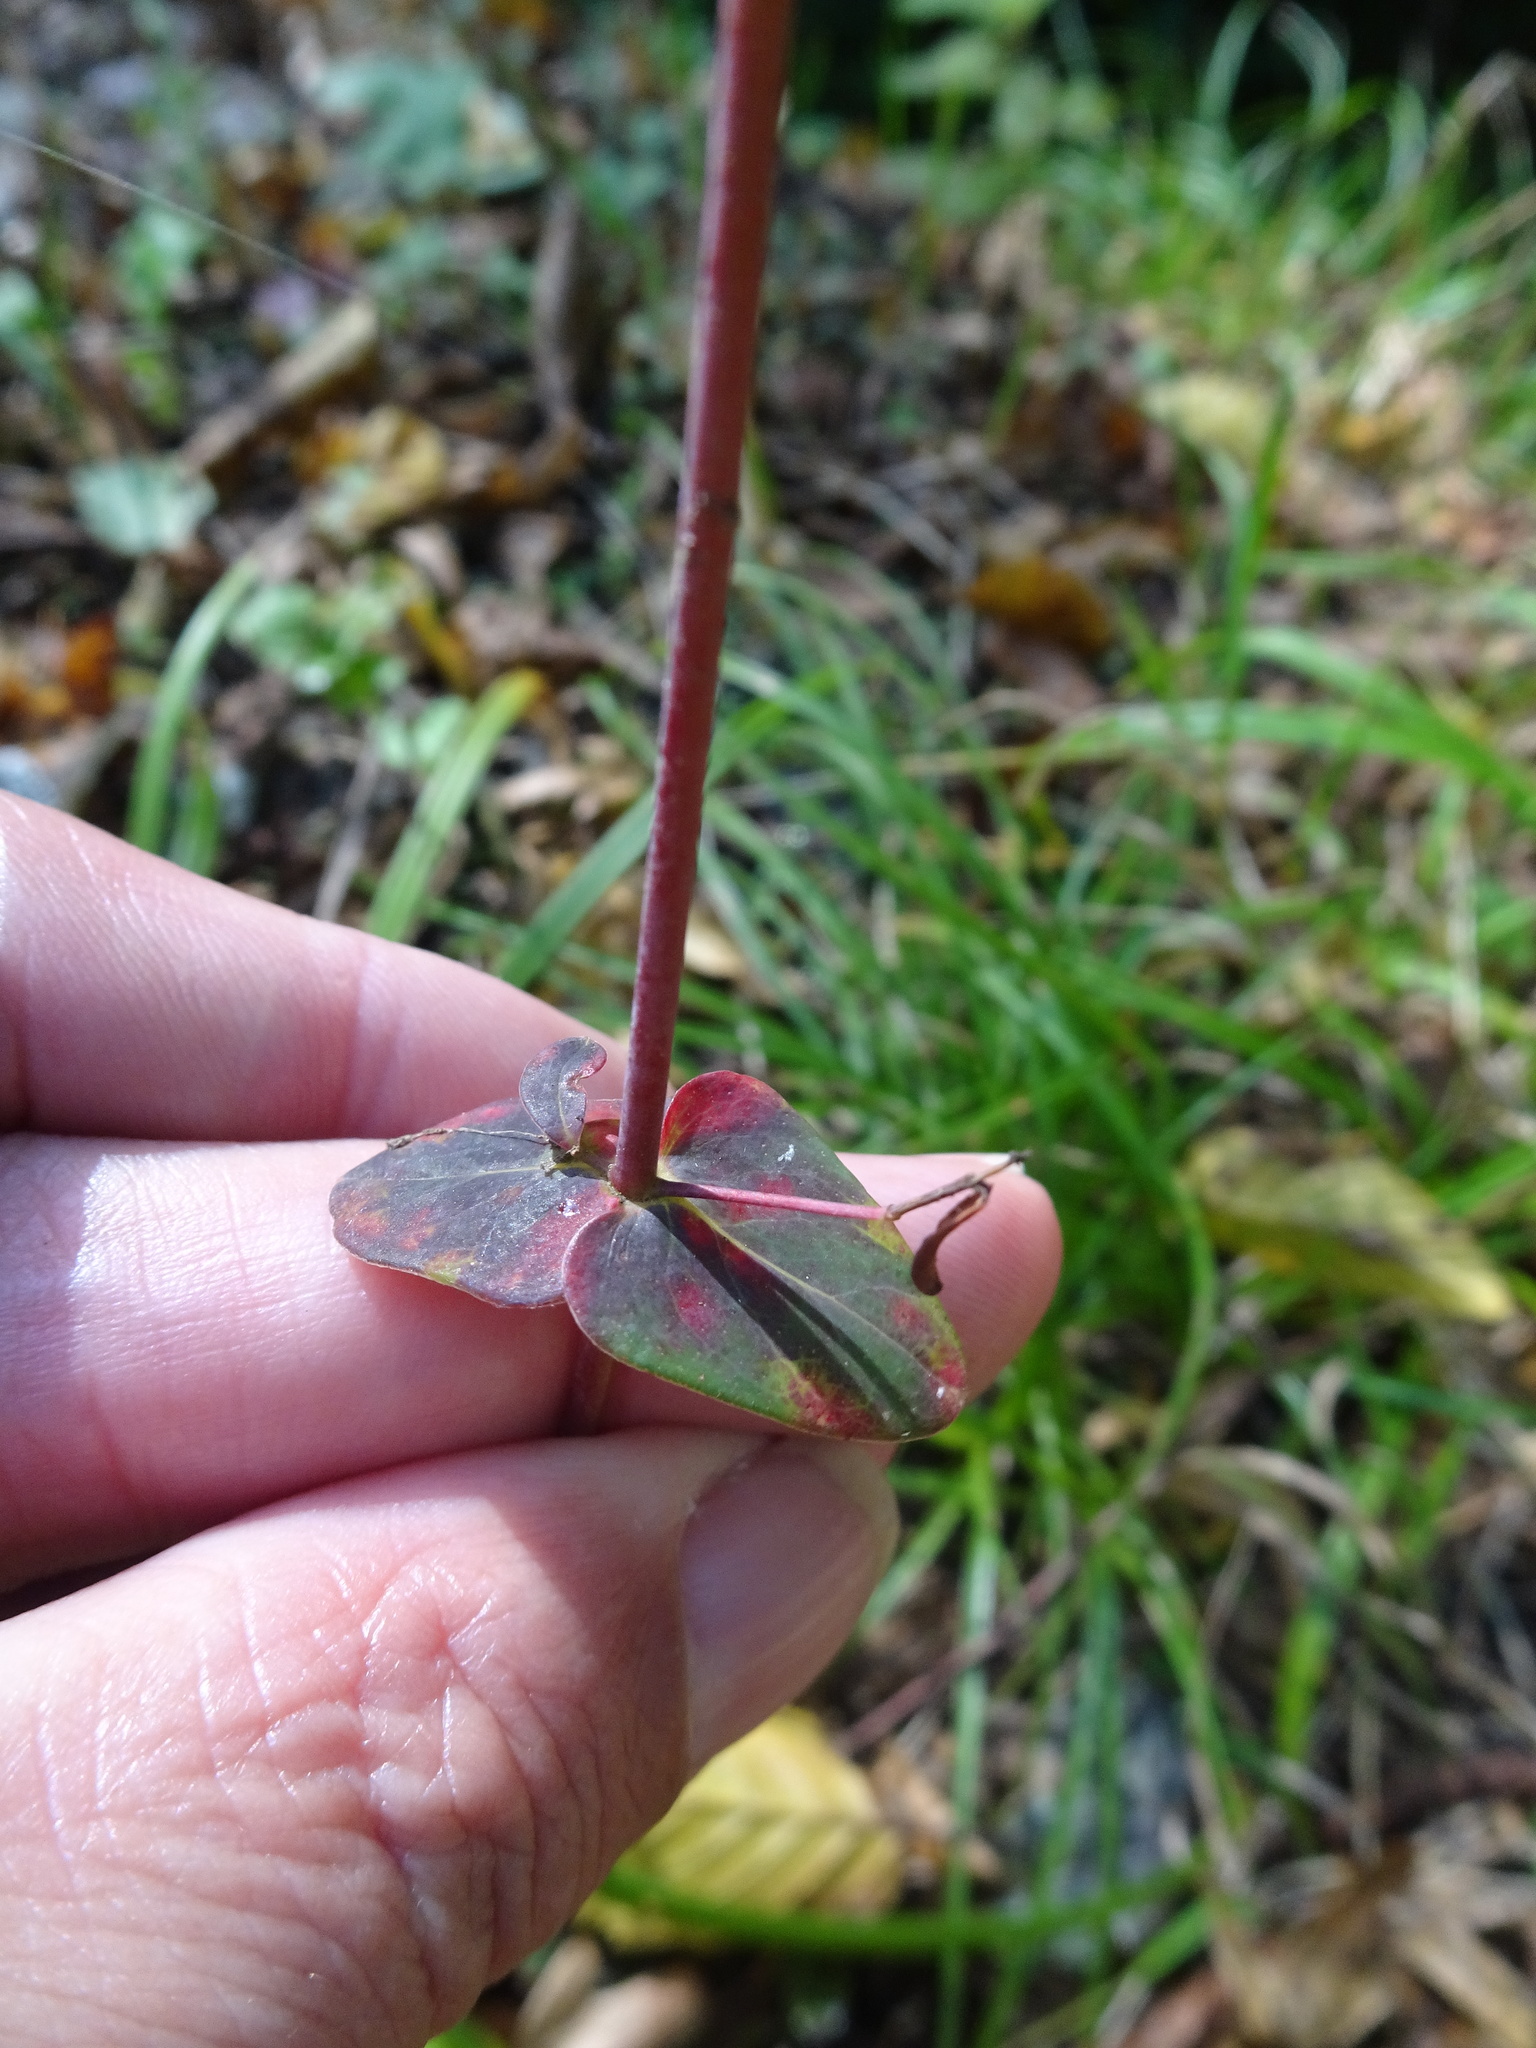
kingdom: Plantae
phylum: Tracheophyta
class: Magnoliopsida
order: Malpighiales
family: Hypericaceae
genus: Hypericum
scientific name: Hypericum pulchrum
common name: Slender st. john's-wort
